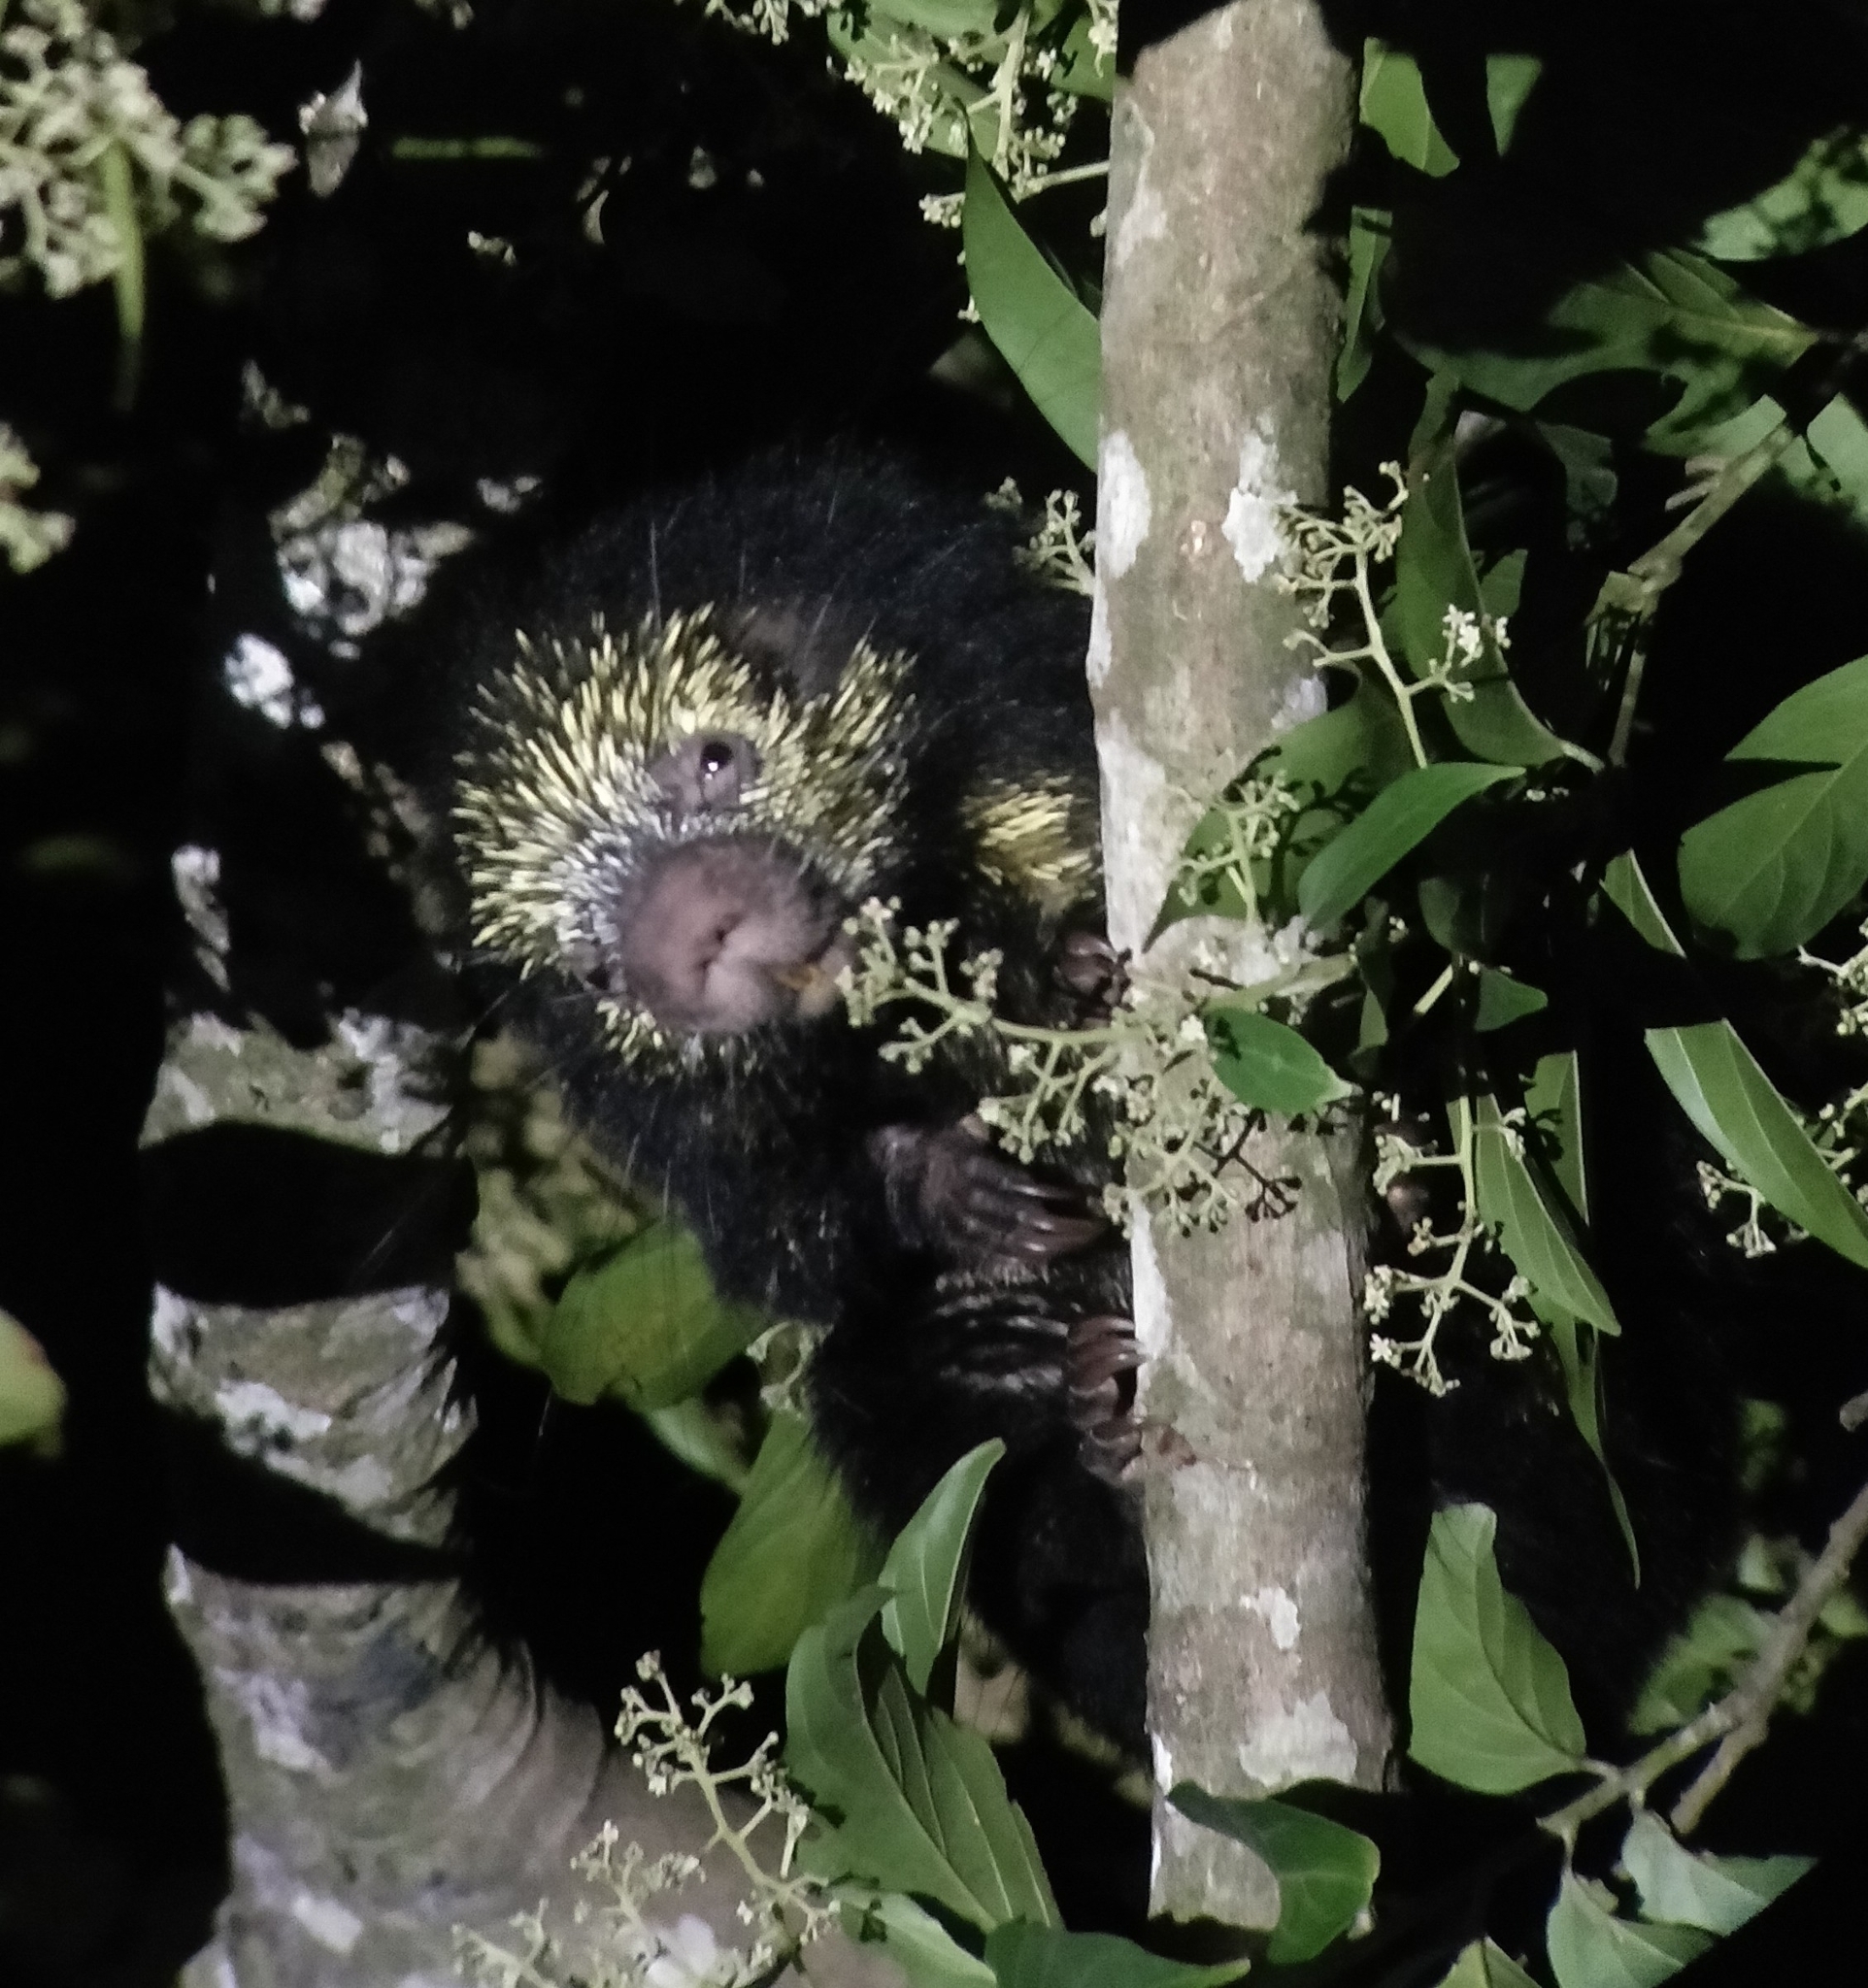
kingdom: Animalia
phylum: Chordata
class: Mammalia
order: Rodentia
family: Erethizontidae
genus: Sphiggurus
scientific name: Sphiggurus mexicanus
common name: Mexican hairy dwarf porcupine
